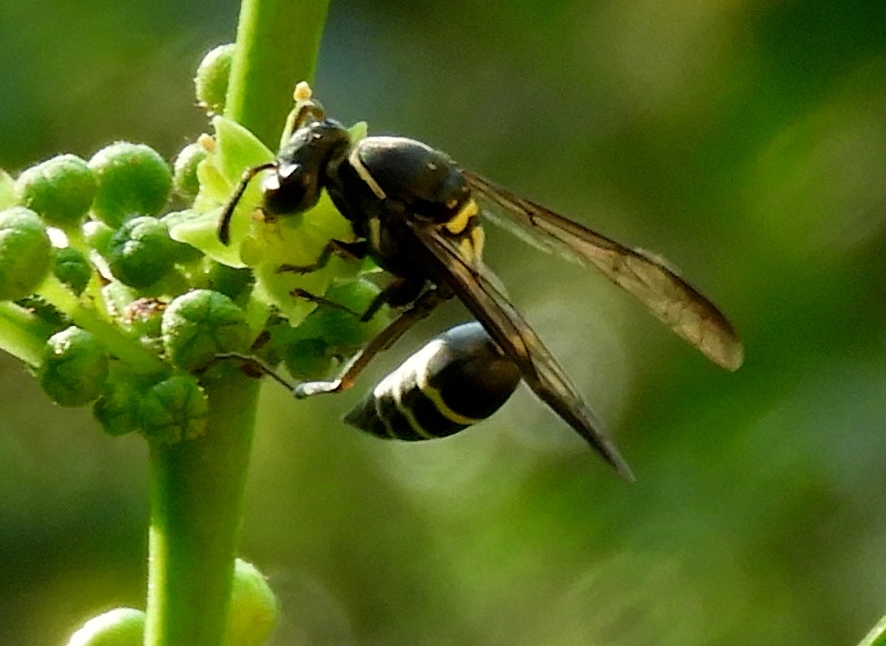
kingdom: Animalia
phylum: Arthropoda
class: Insecta
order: Hymenoptera
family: Vespidae
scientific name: Vespidae
